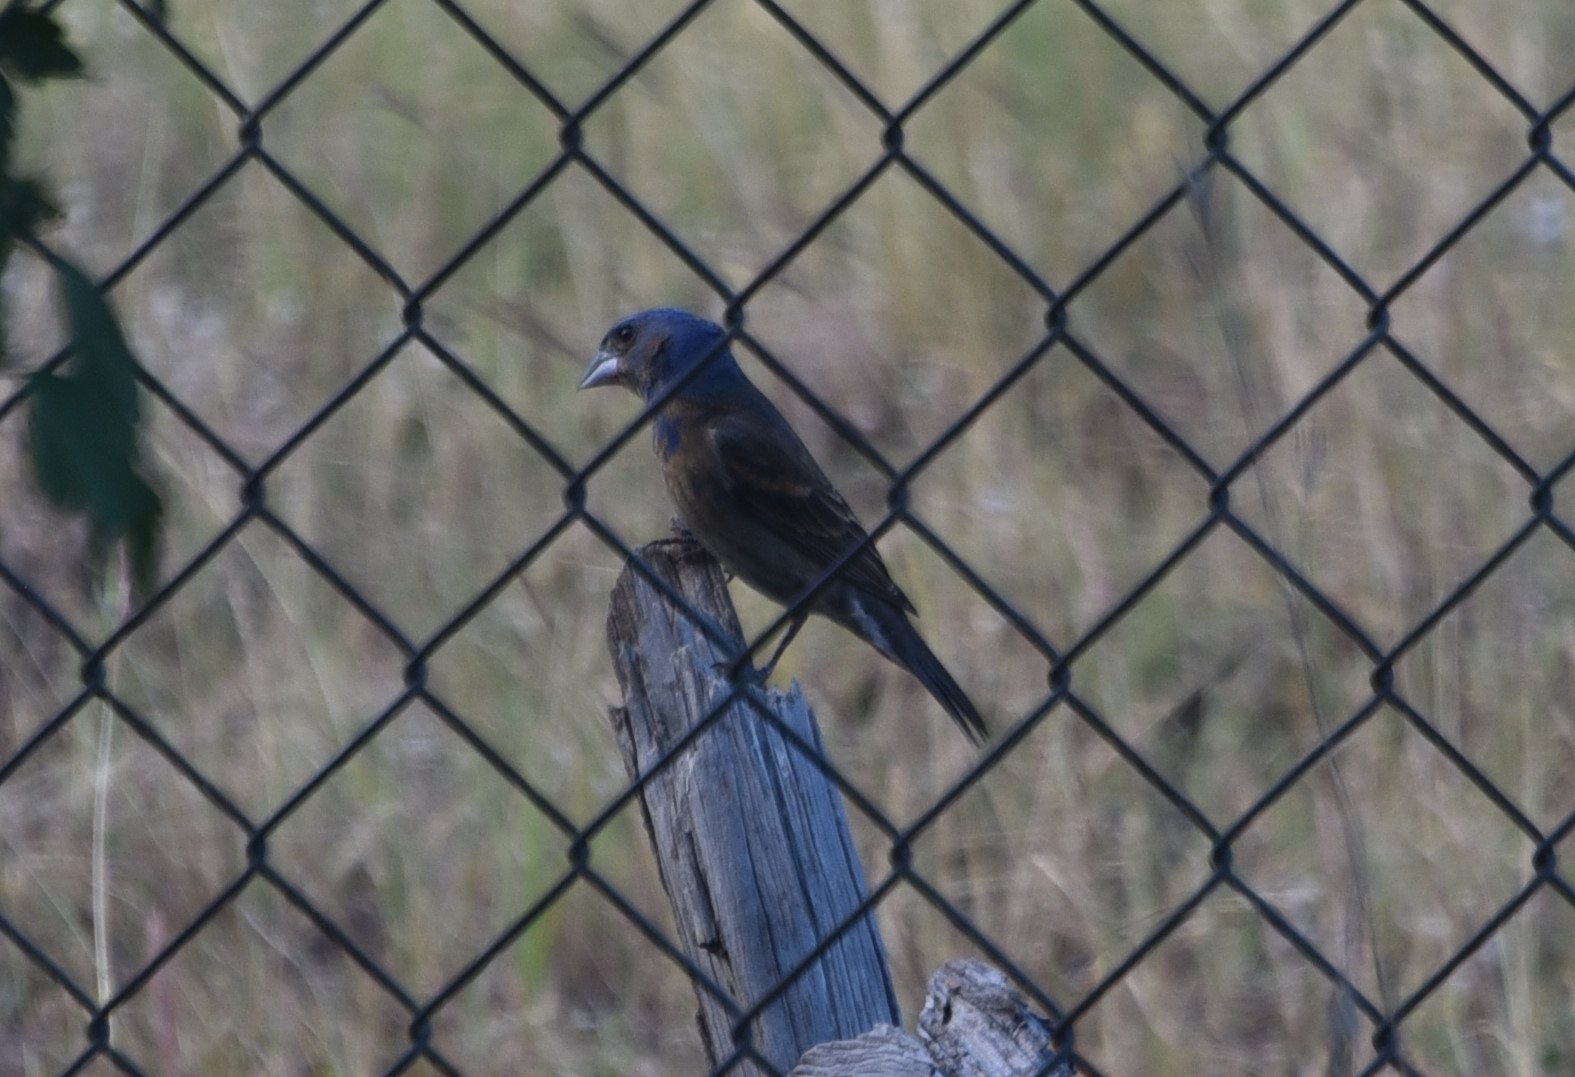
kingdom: Animalia
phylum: Chordata
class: Aves
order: Passeriformes
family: Cardinalidae
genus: Passerina
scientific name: Passerina caerulea
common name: Blue grosbeak
